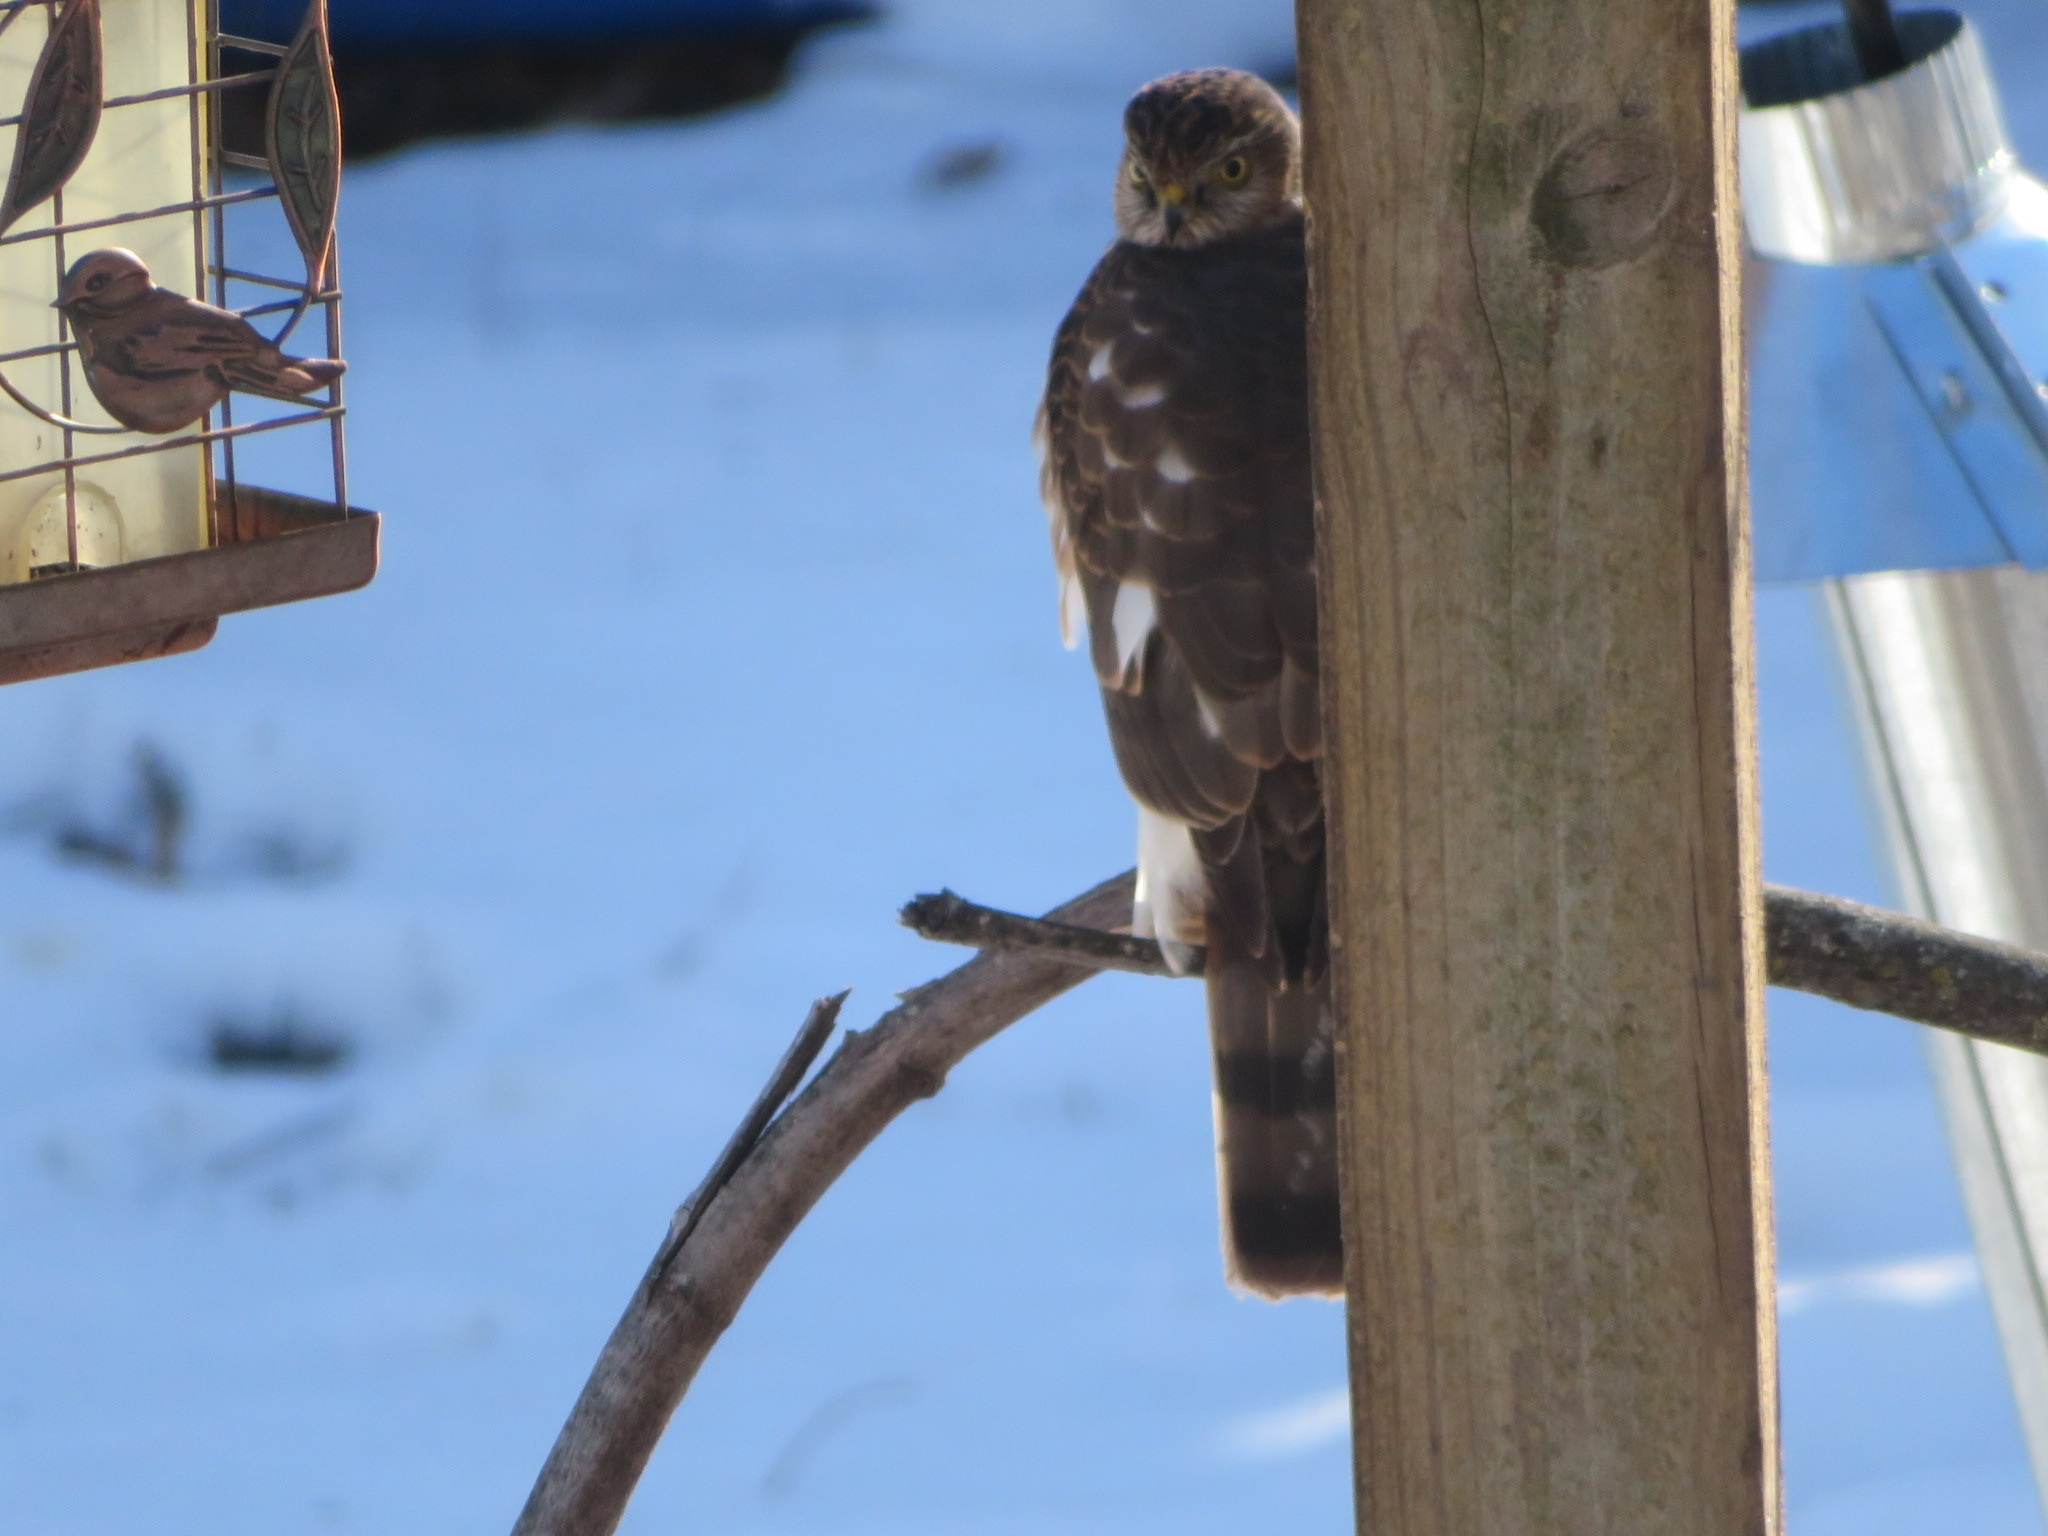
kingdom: Animalia
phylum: Chordata
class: Aves
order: Accipitriformes
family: Accipitridae
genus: Accipiter
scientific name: Accipiter striatus
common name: Sharp-shinned hawk
